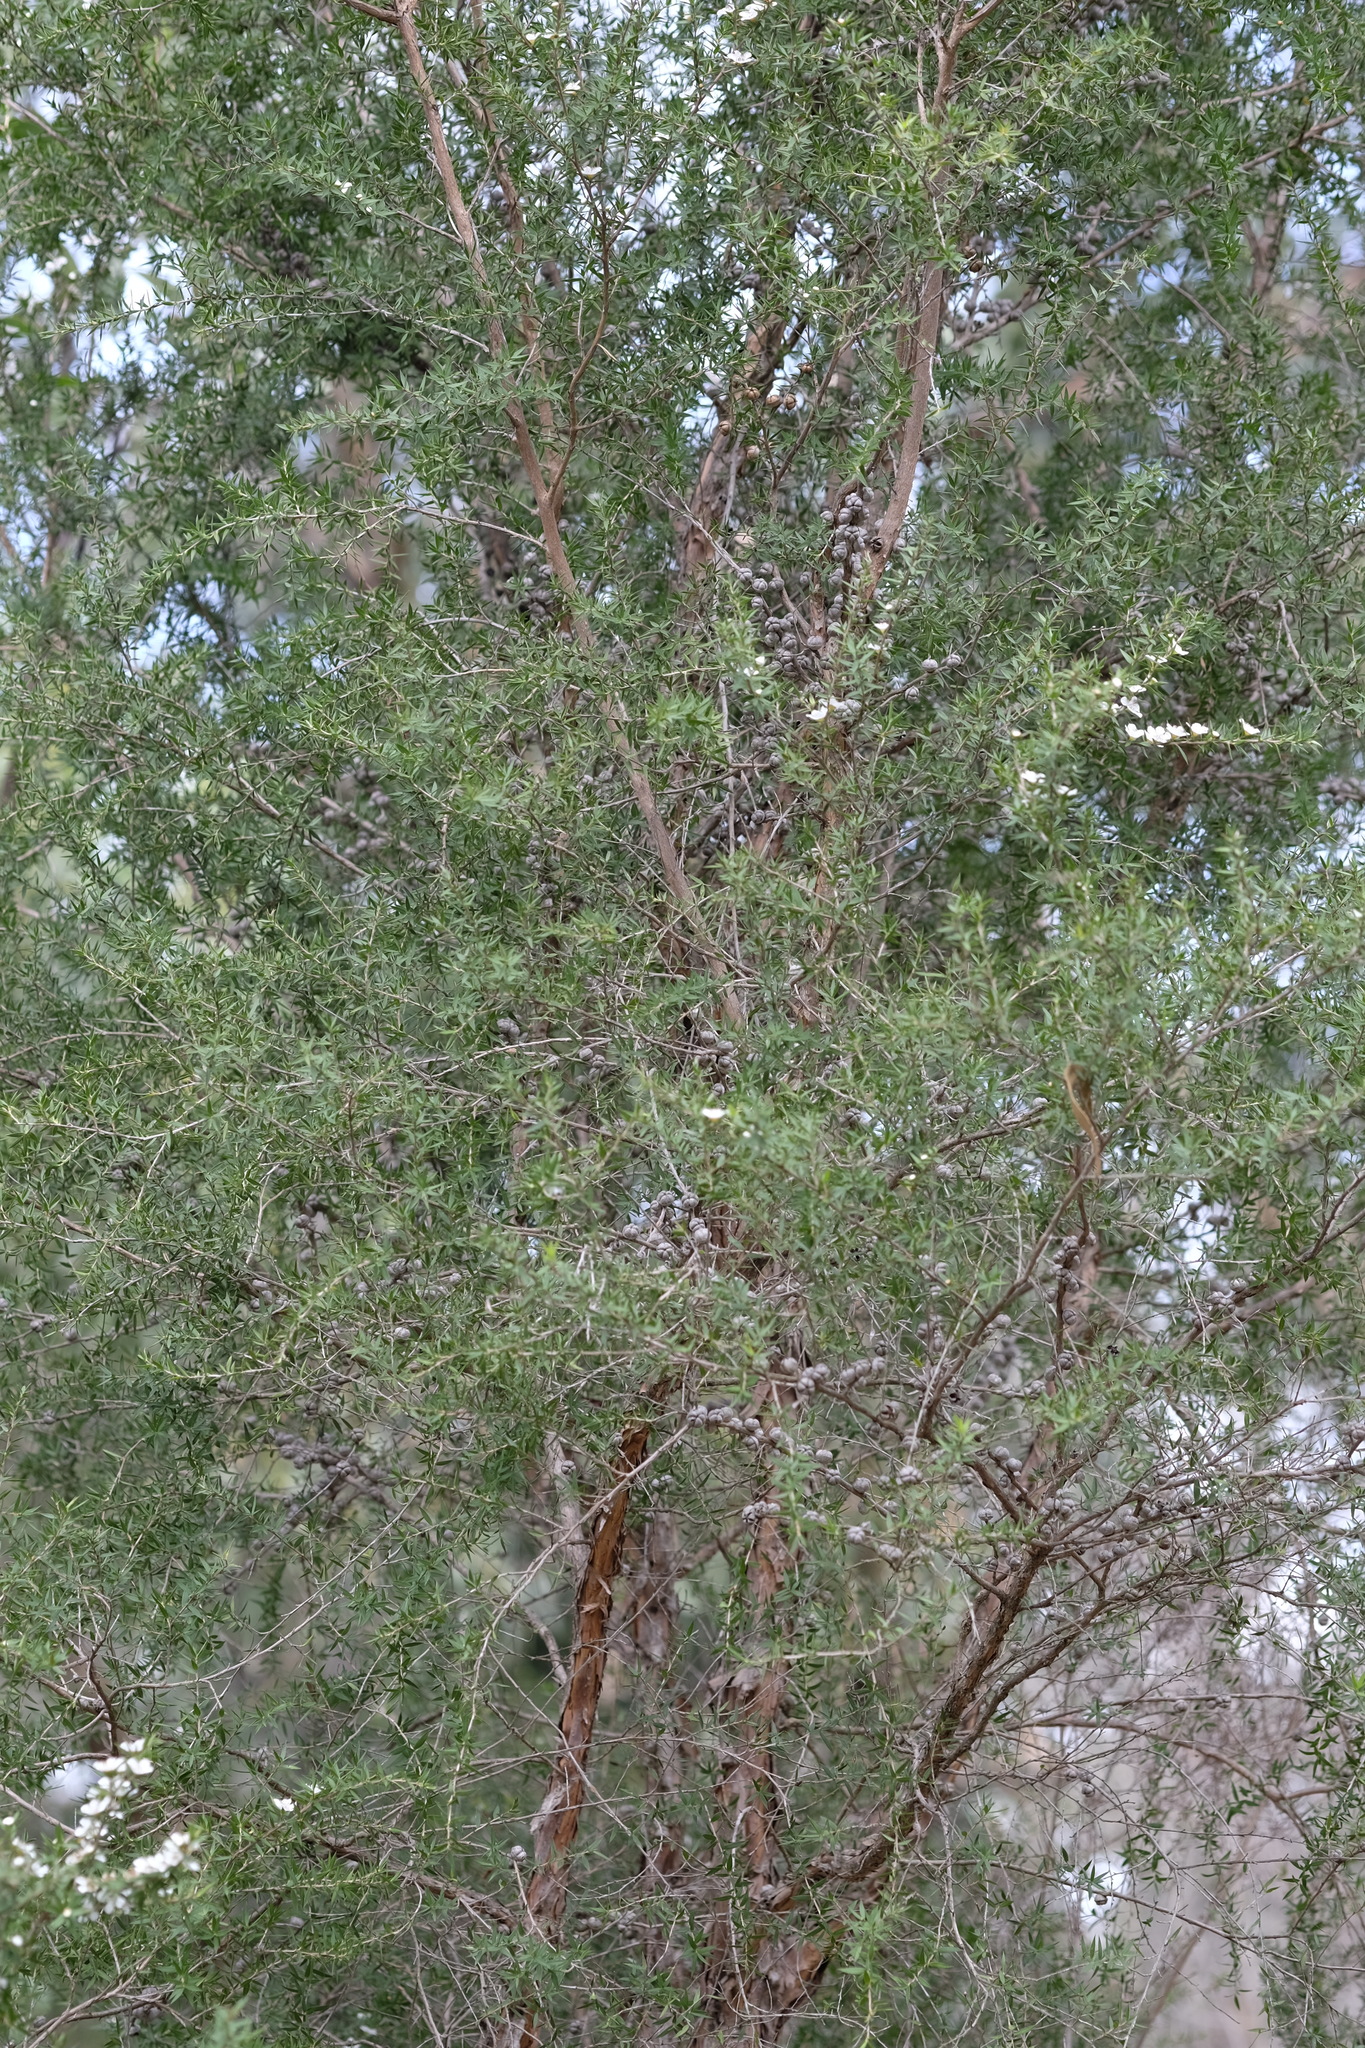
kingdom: Plantae
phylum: Tracheophyta
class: Magnoliopsida
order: Myrtales
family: Myrtaceae
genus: Leptospermum
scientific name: Leptospermum continentale
